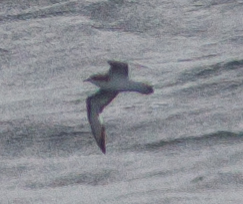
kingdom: Animalia
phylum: Chordata
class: Aves
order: Procellariiformes
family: Procellariidae
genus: Pterodroma
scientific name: Pterodroma cookii
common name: Cook's petrel
